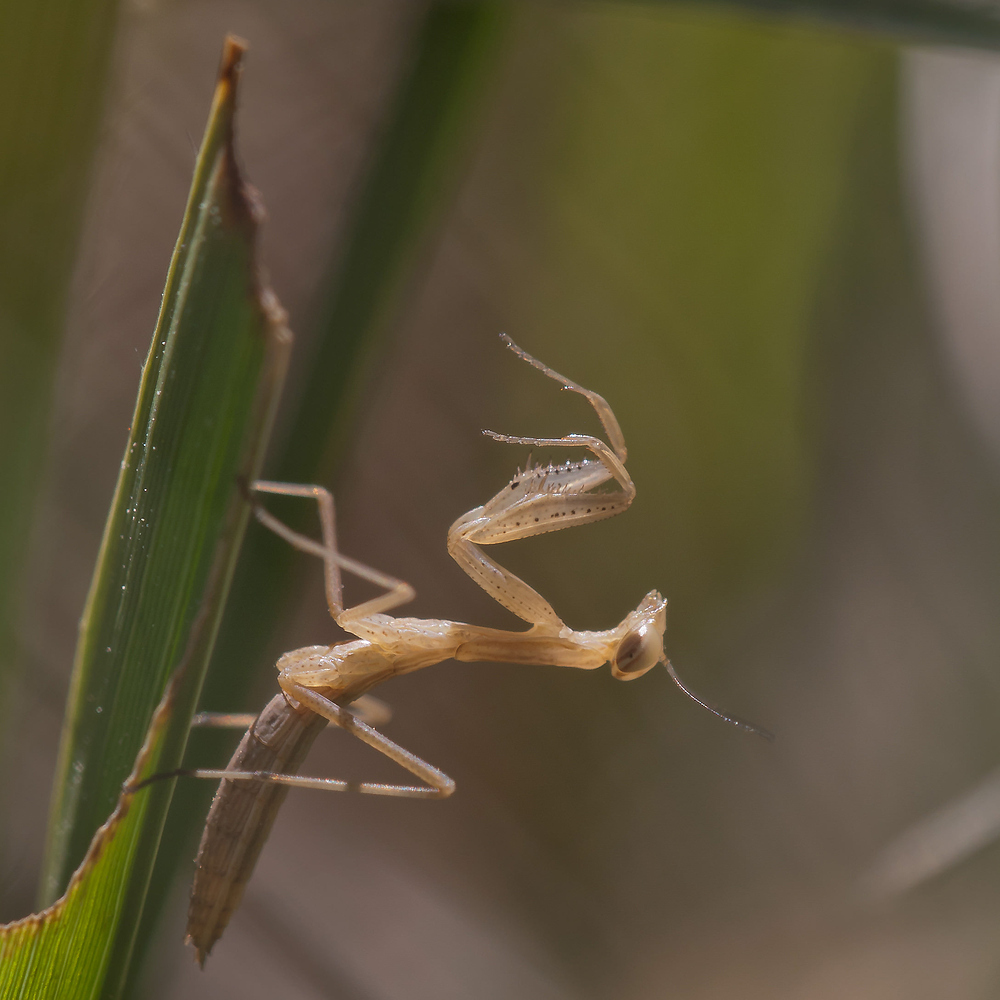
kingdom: Animalia
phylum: Arthropoda
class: Insecta
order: Mantodea
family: Mantidae
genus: Mantis
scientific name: Mantis religiosa
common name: Praying mantis
